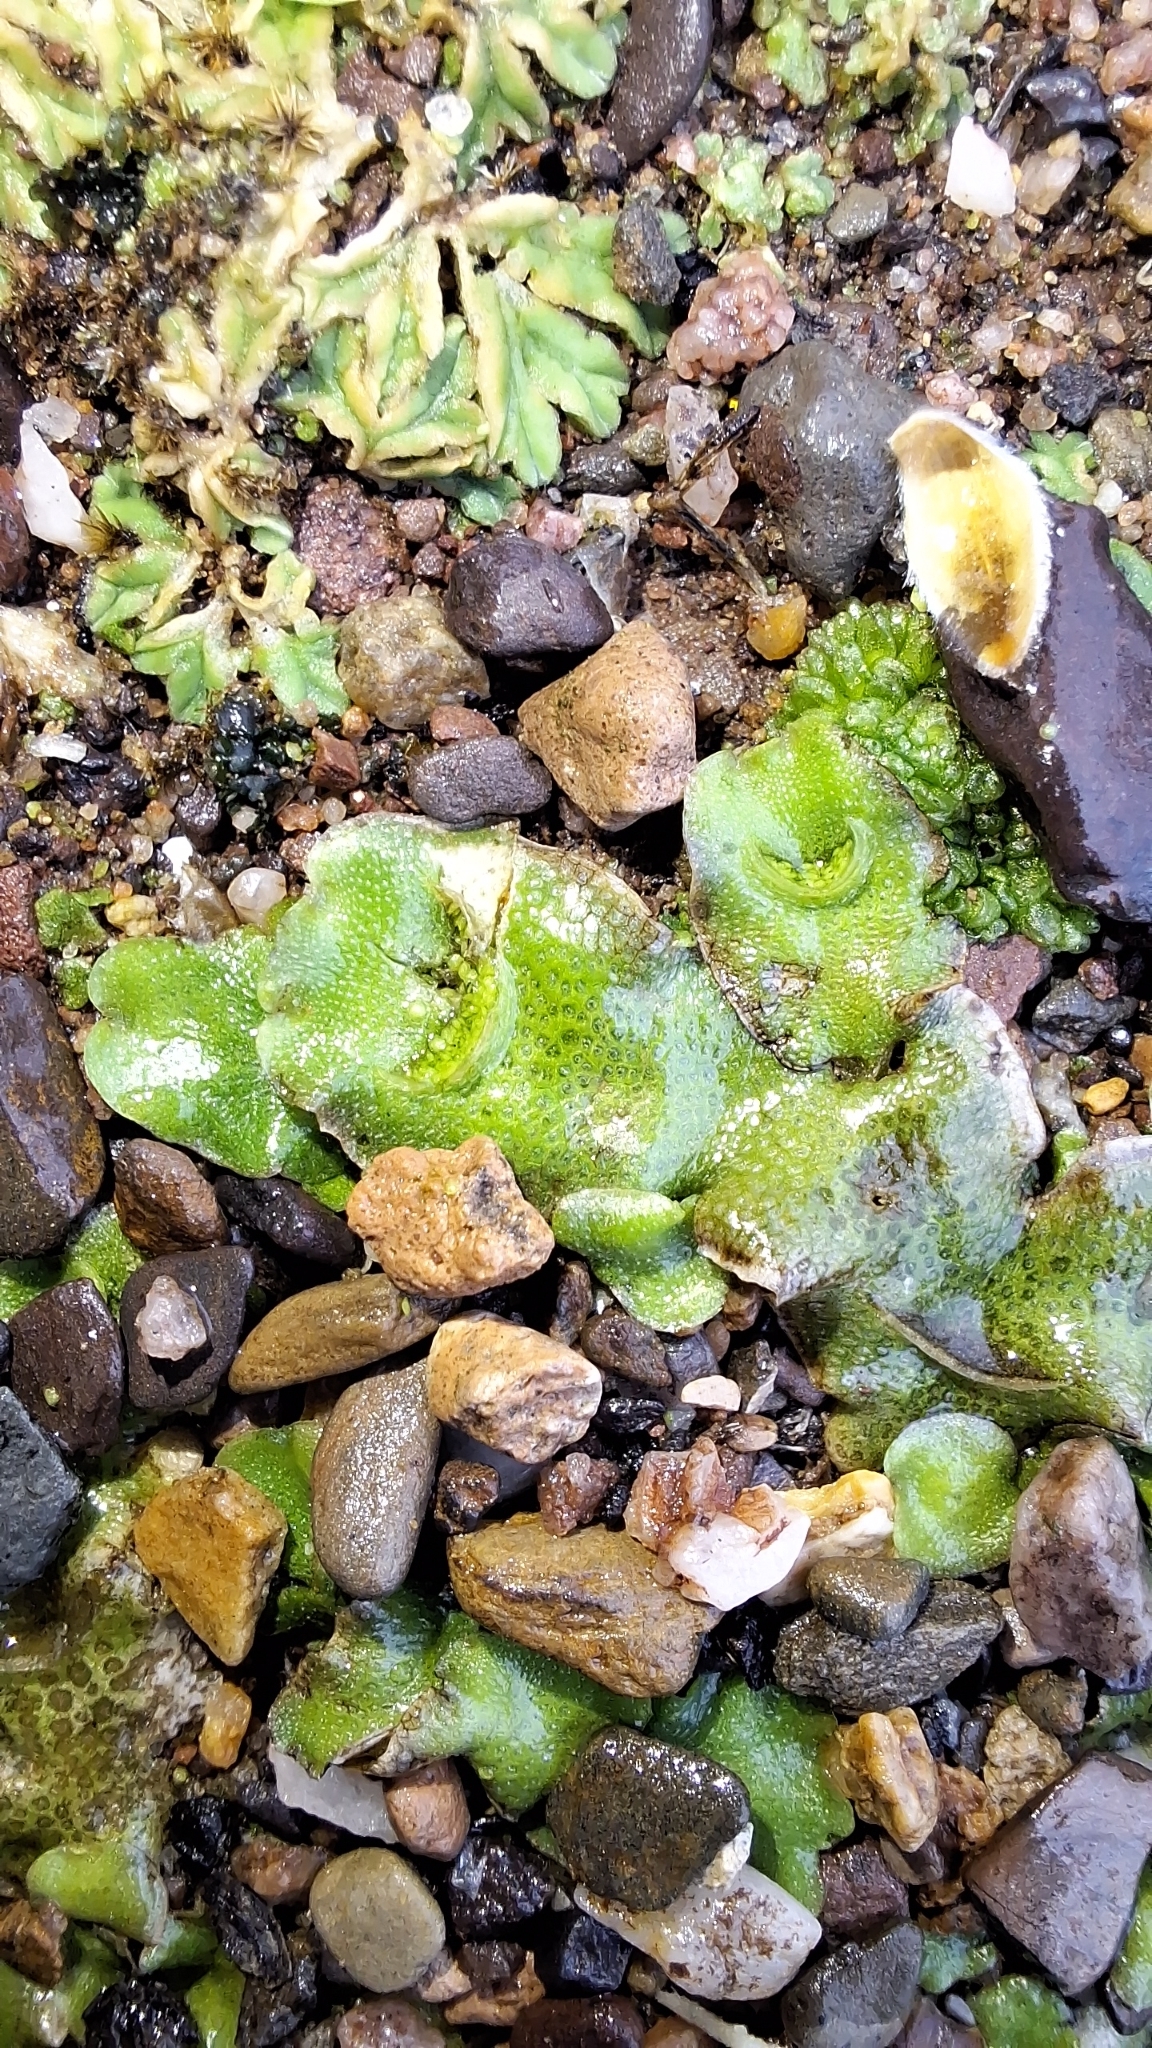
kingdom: Plantae
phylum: Marchantiophyta
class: Marchantiopsida
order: Lunulariales
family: Lunulariaceae
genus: Lunularia
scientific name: Lunularia cruciata
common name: Crescent-cup liverwort
